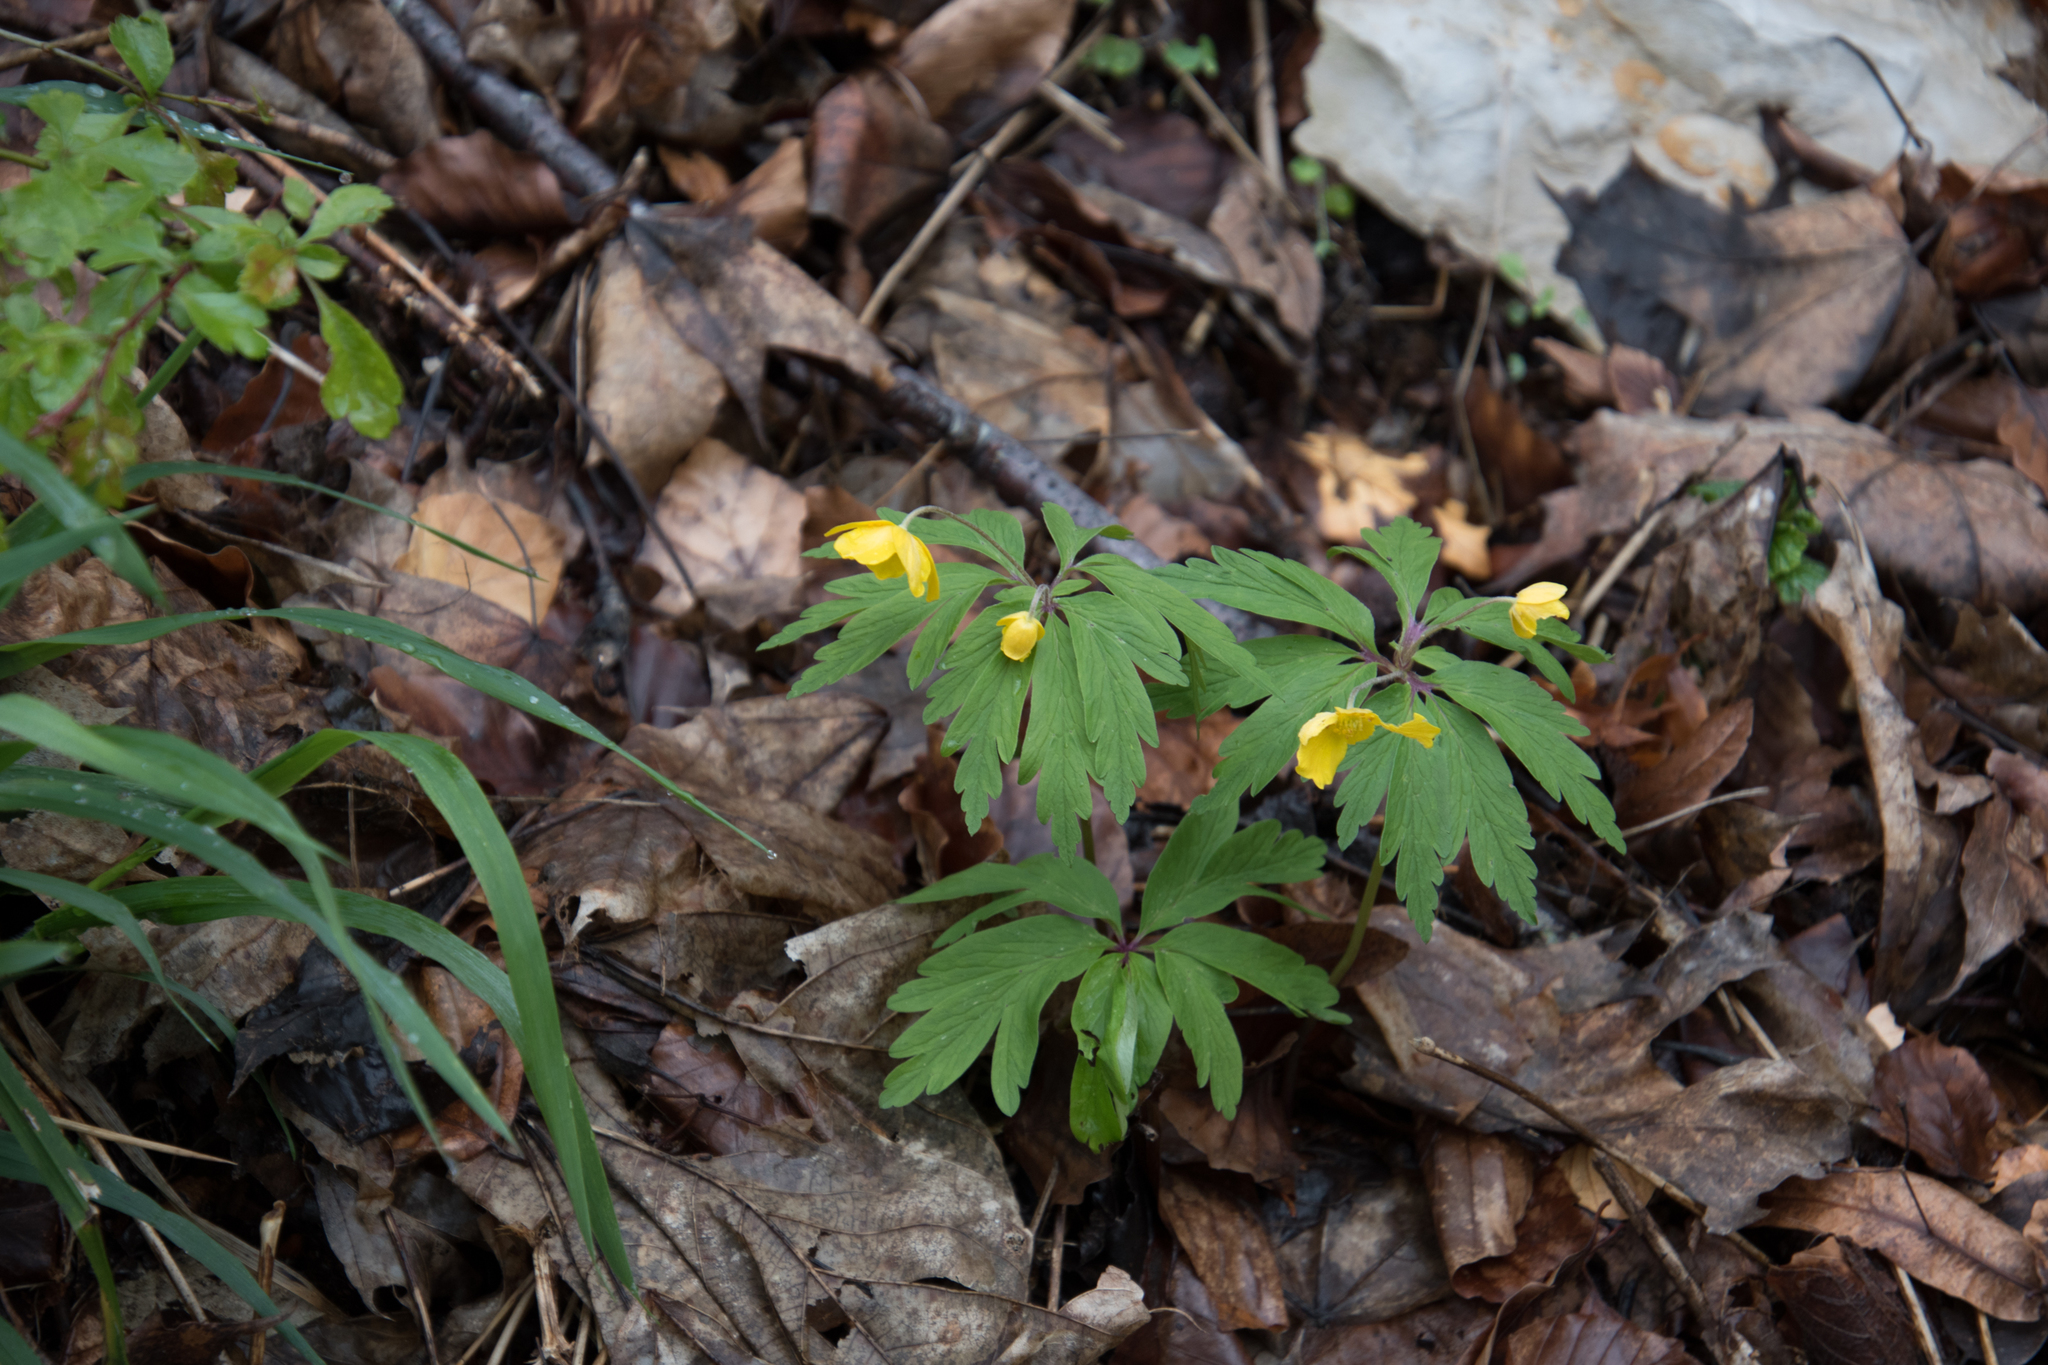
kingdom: Plantae
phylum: Tracheophyta
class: Magnoliopsida
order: Ranunculales
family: Ranunculaceae
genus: Anemone
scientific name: Anemone ranunculoides
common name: Yellow anemone
